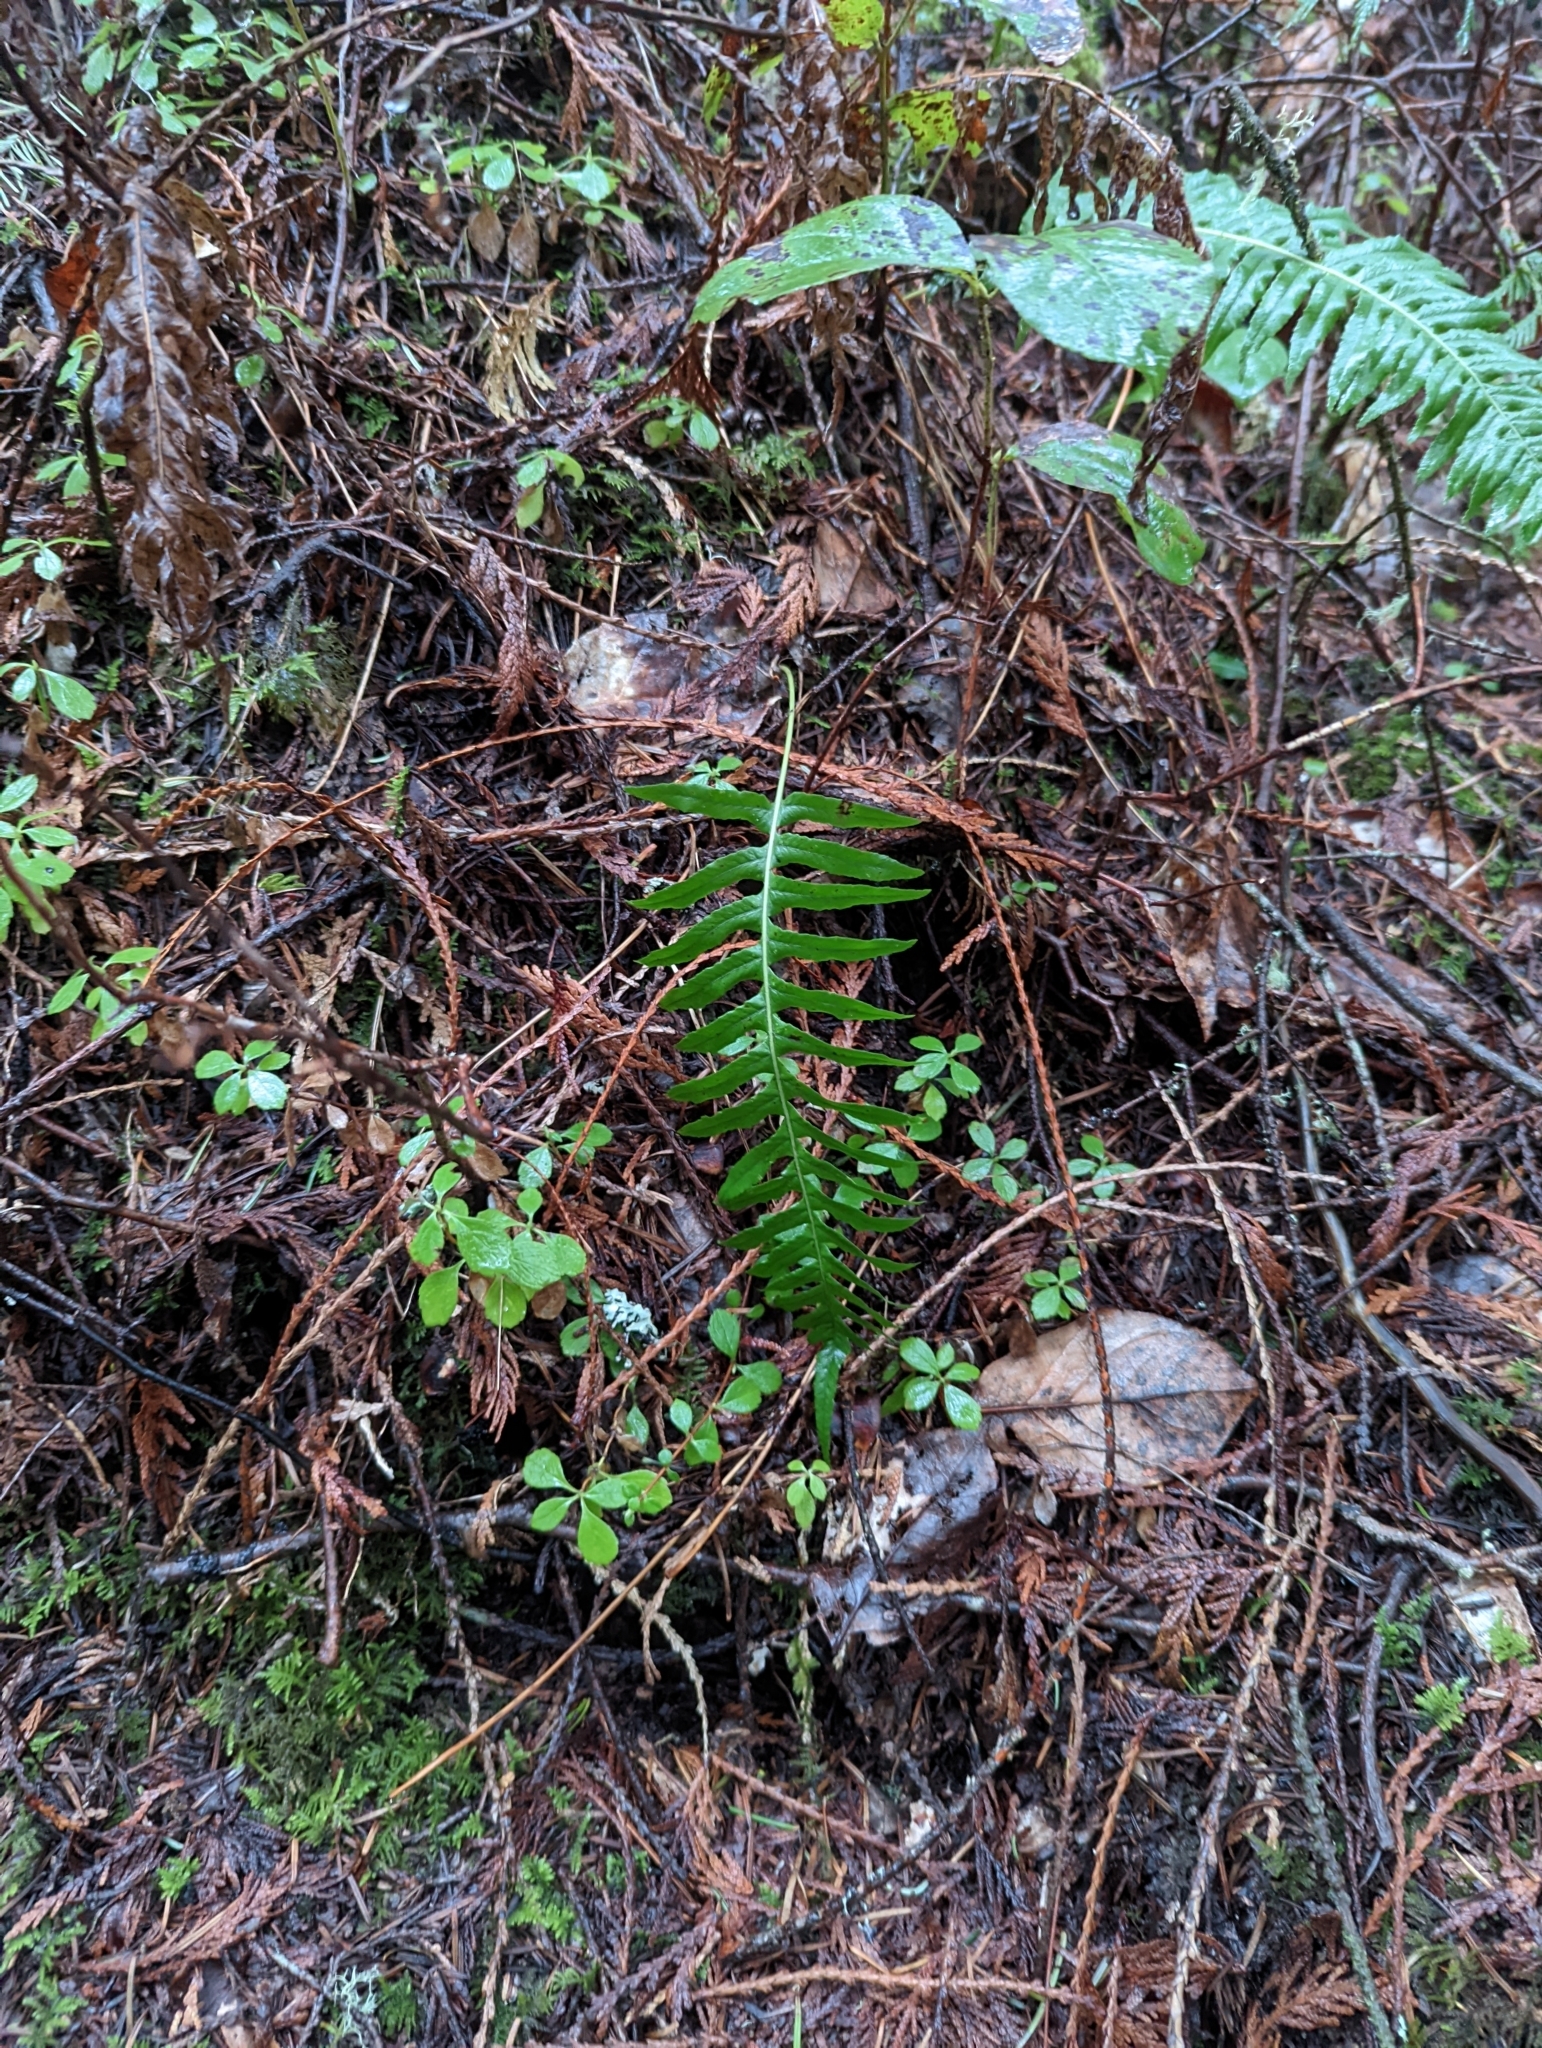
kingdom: Plantae
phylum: Tracheophyta
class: Polypodiopsida
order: Polypodiales
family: Polypodiaceae
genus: Polypodium
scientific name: Polypodium glycyrrhiza
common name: Licorice fern
